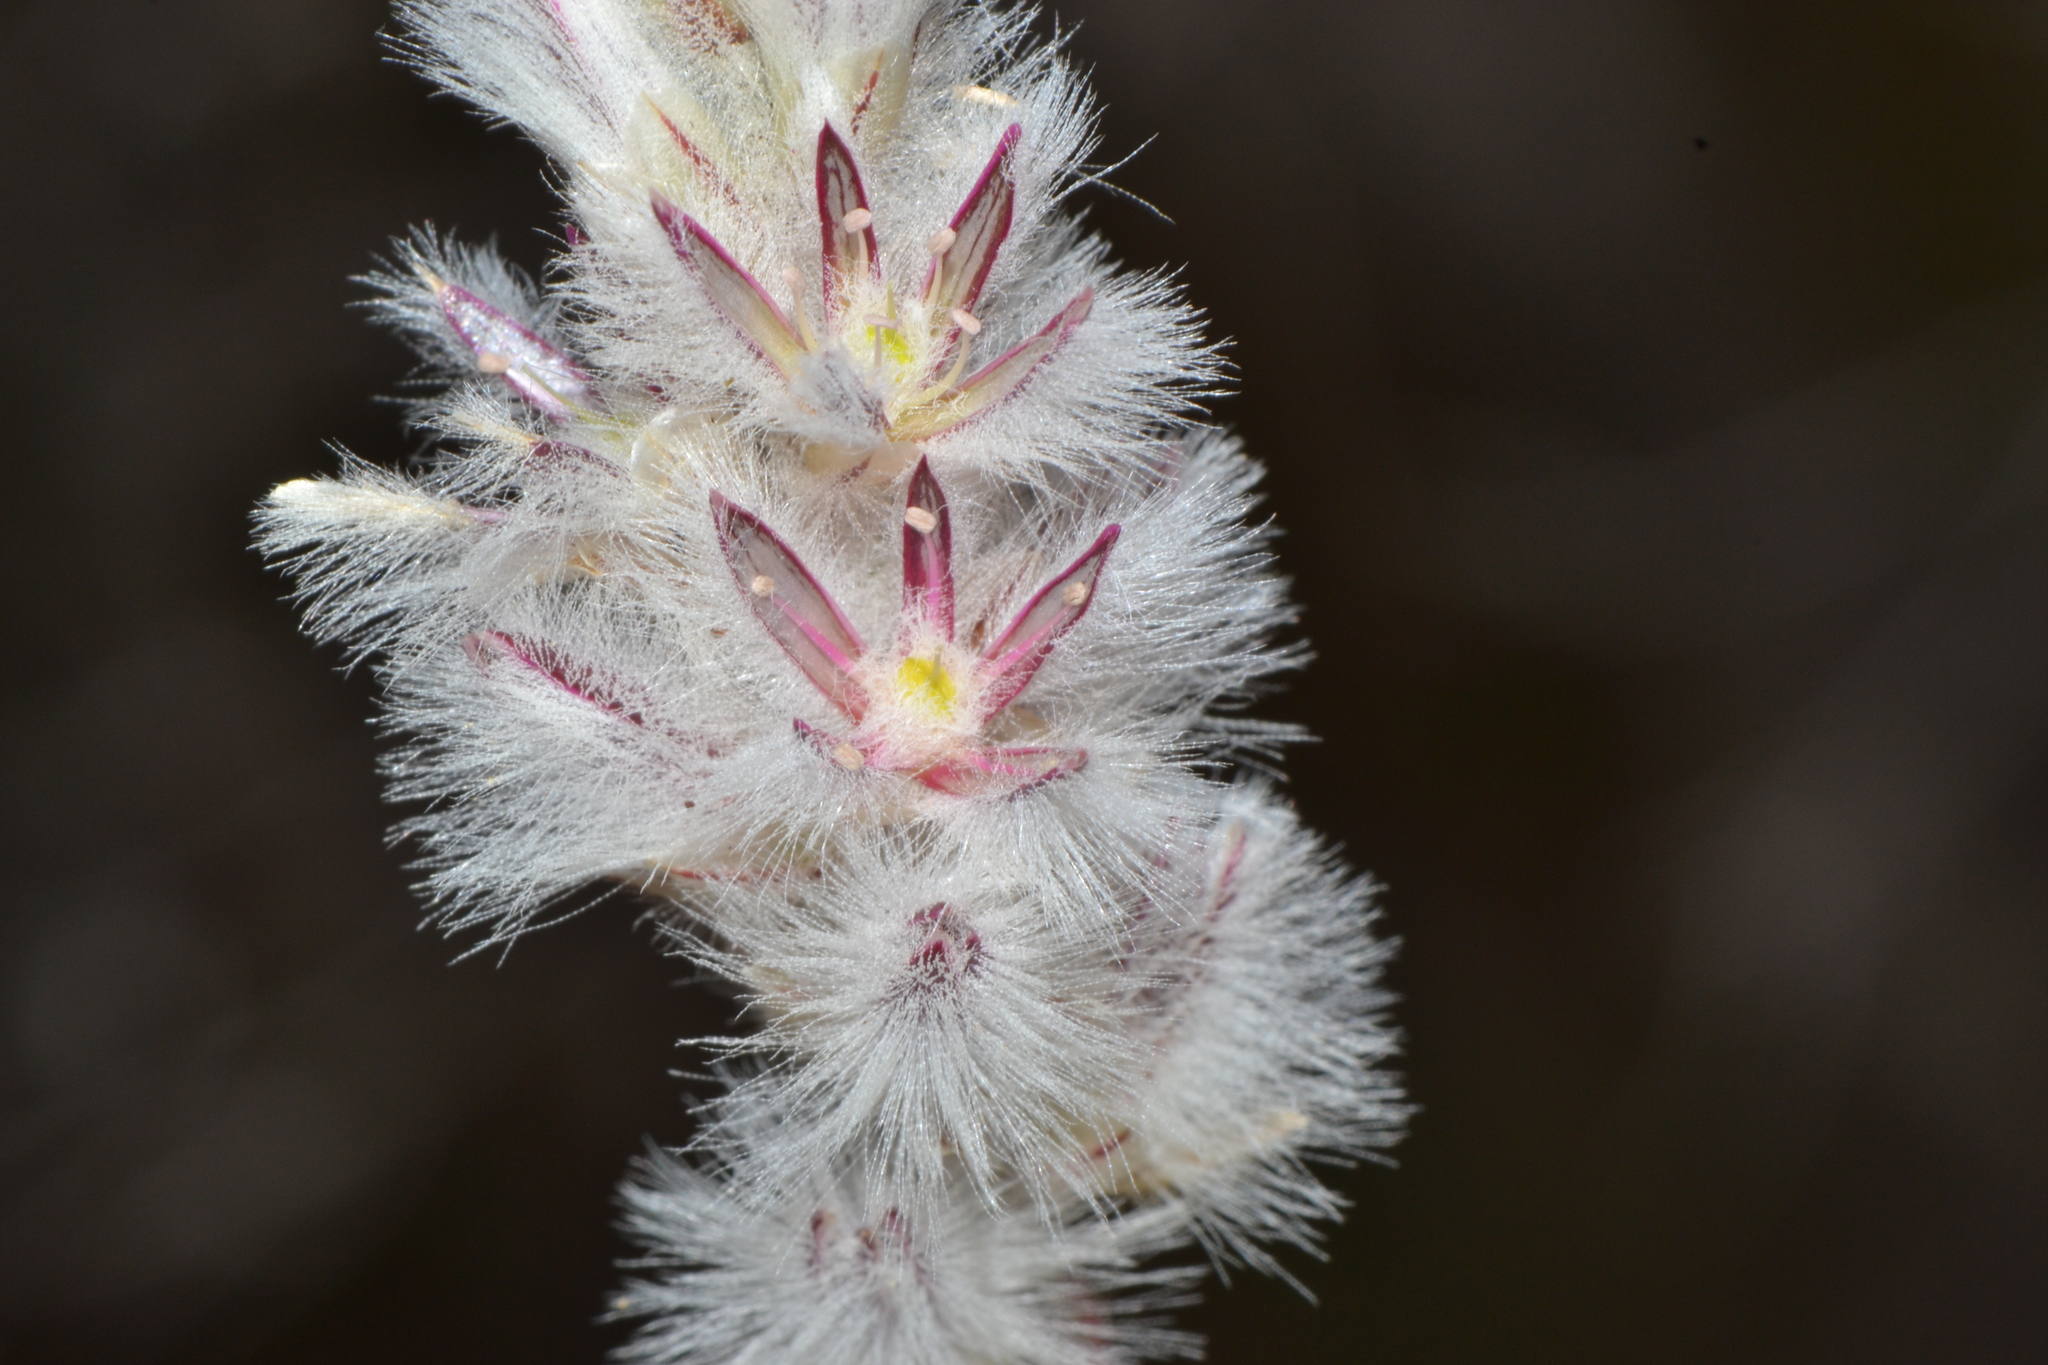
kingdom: Plantae
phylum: Tracheophyta
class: Magnoliopsida
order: Caryophyllales
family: Amaranthaceae
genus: Ptilotus
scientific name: Ptilotus pyramidatus
